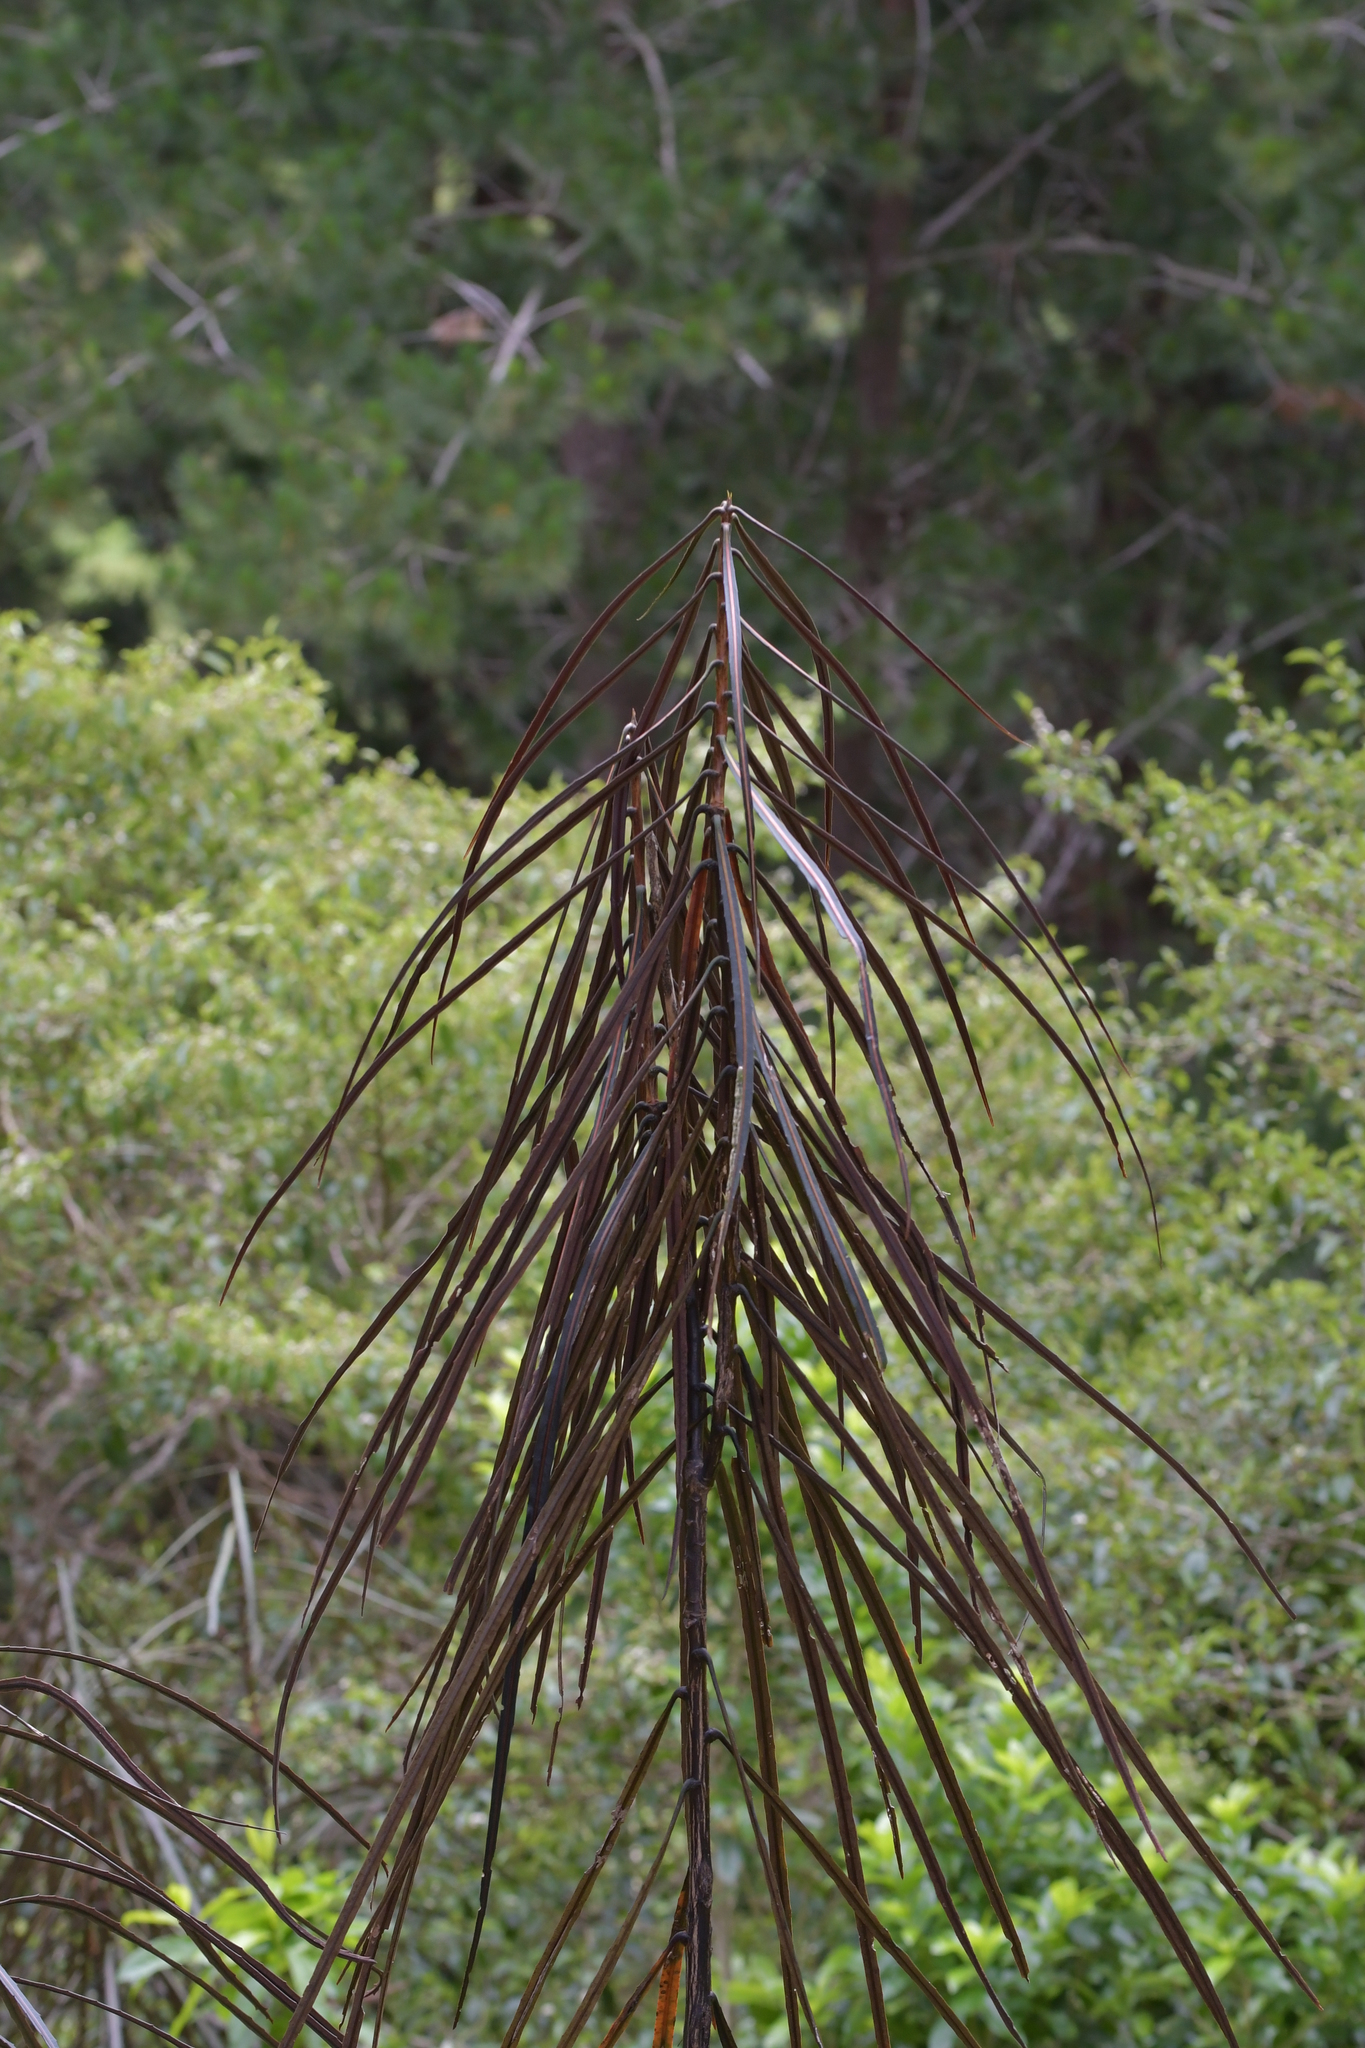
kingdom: Plantae
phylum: Tracheophyta
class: Magnoliopsida
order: Apiales
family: Araliaceae
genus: Pseudopanax
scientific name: Pseudopanax crassifolius
